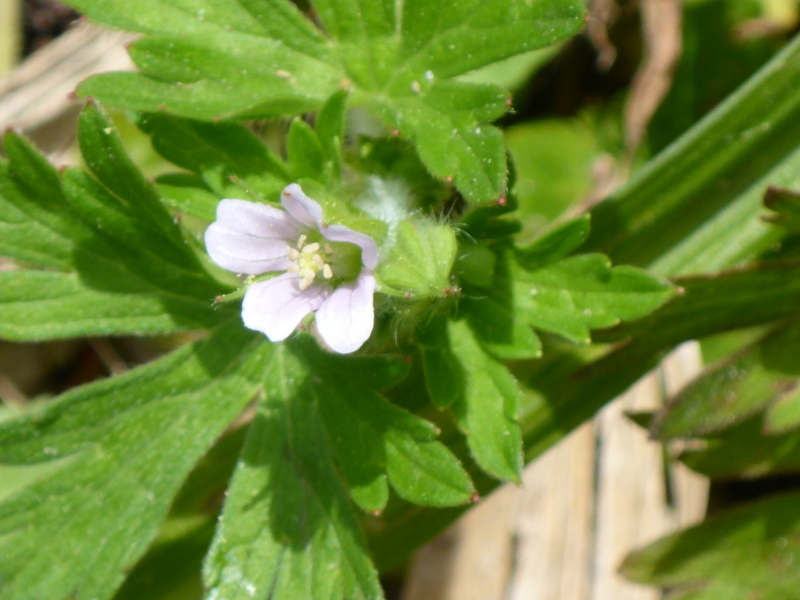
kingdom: Plantae
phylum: Tracheophyta
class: Magnoliopsida
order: Geraniales
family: Geraniaceae
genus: Geranium
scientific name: Geranium carolinianum
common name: Carolina crane's-bill
